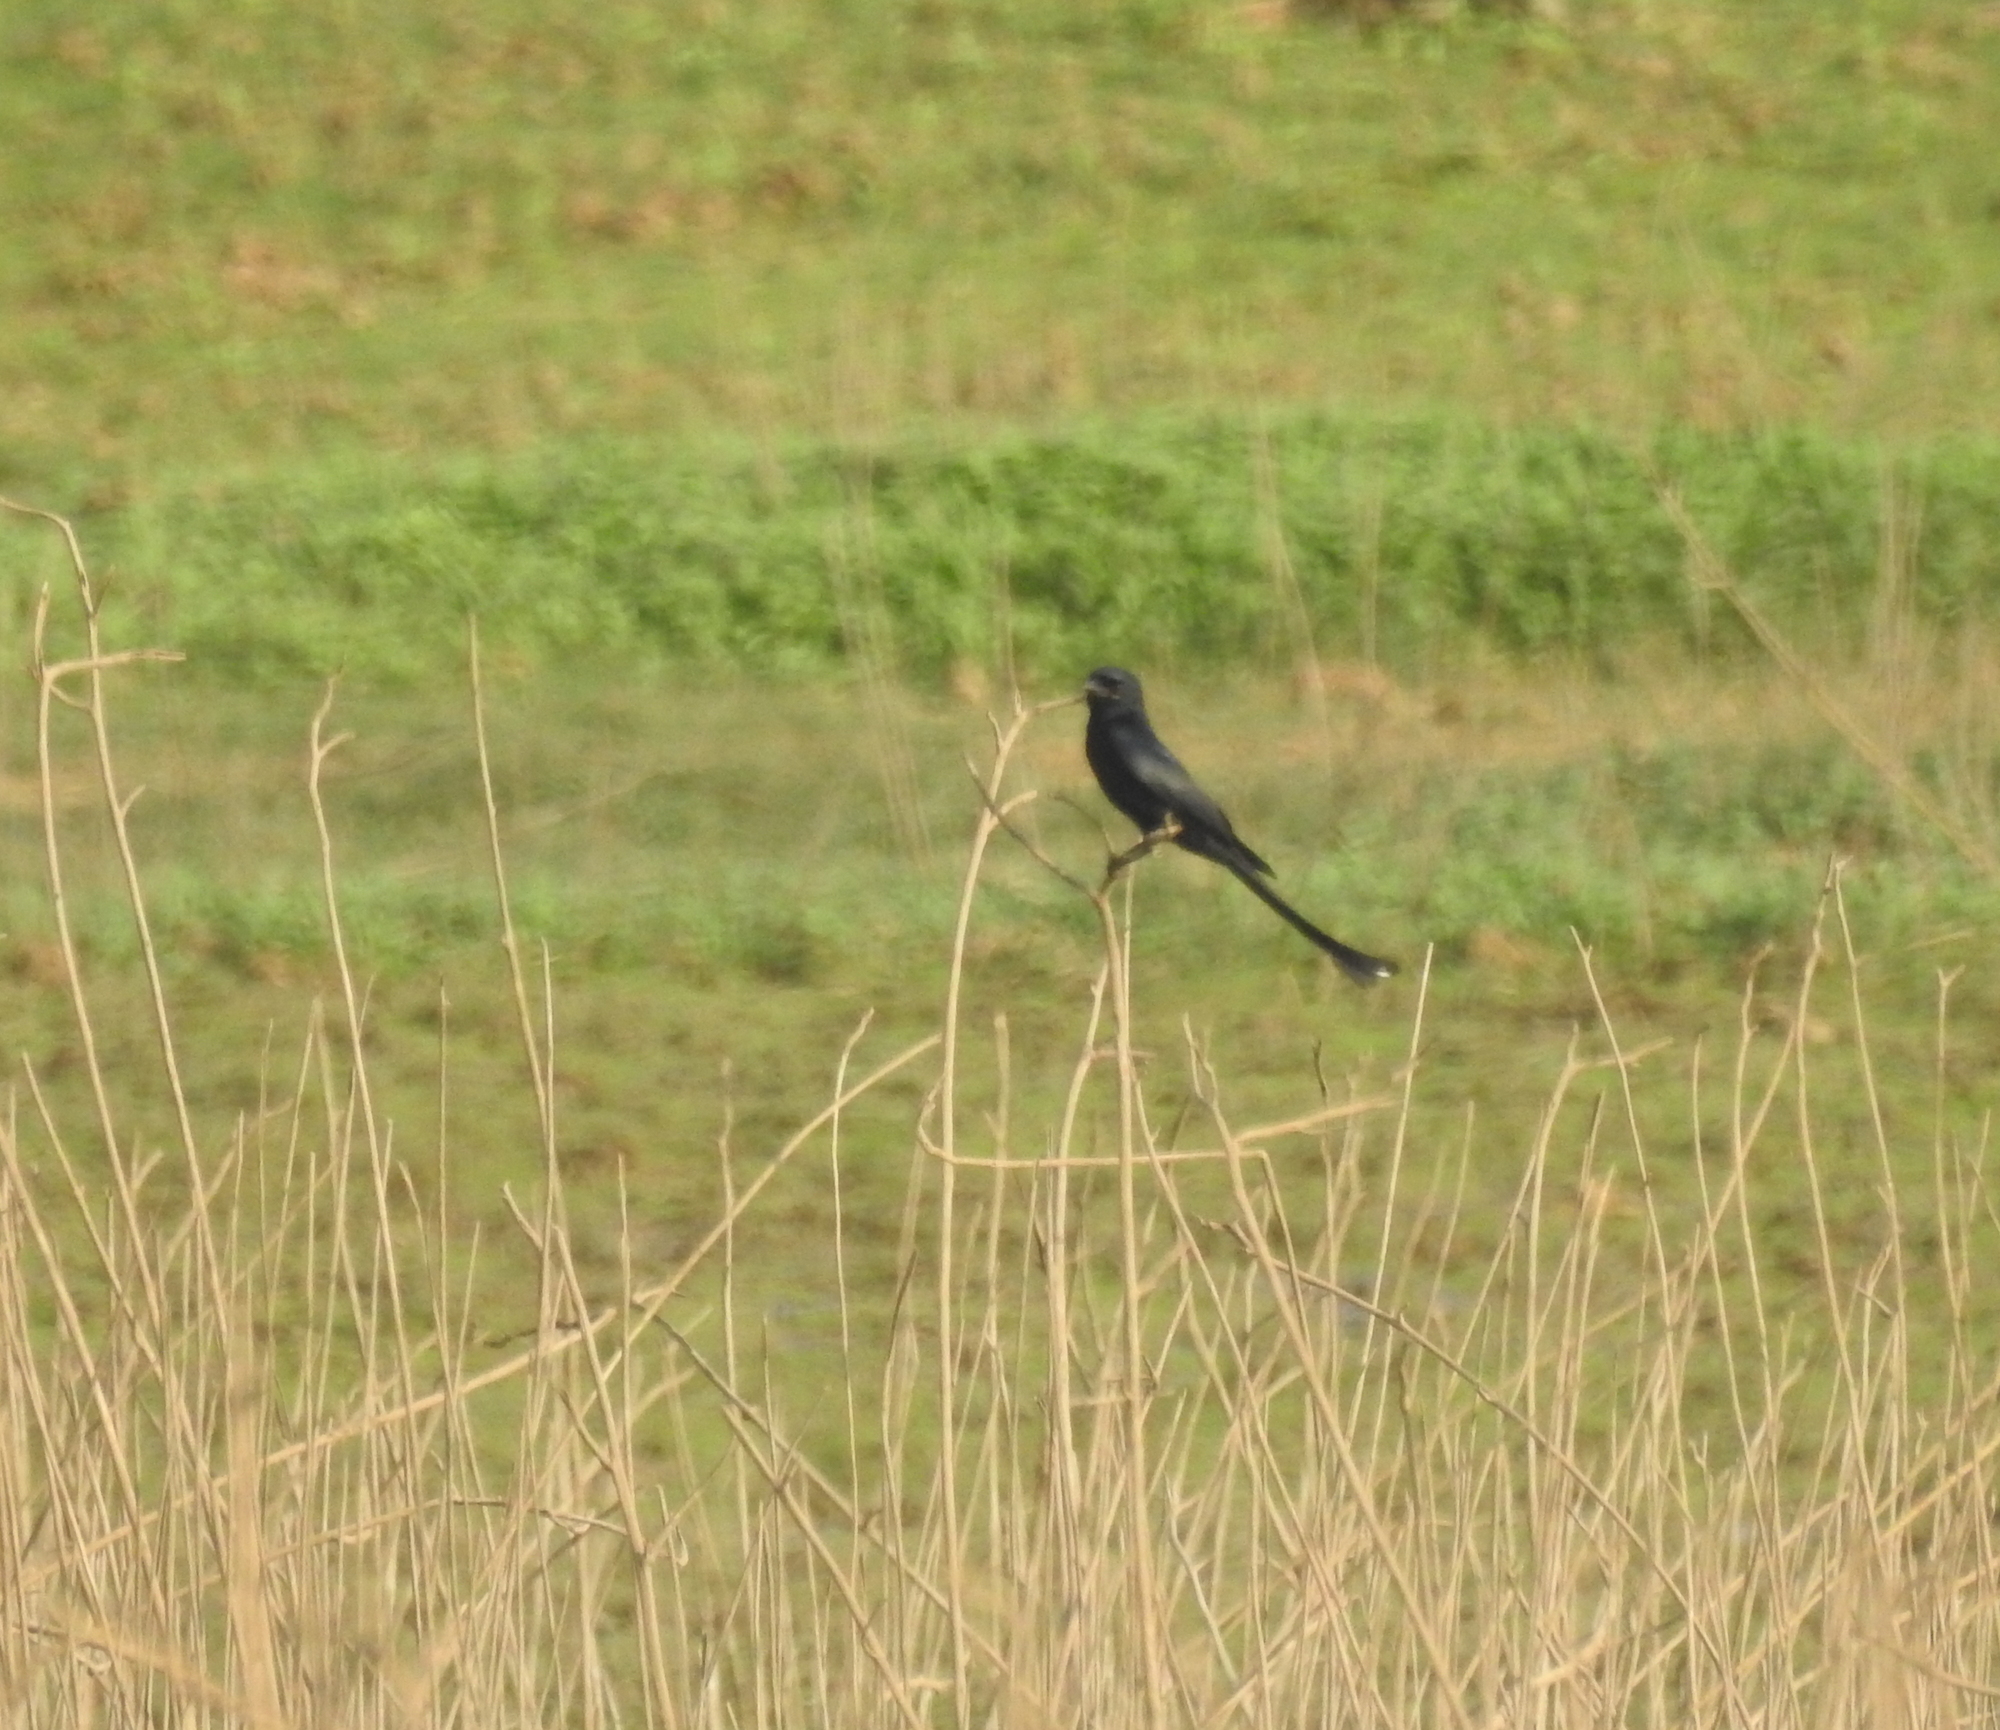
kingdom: Animalia
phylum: Chordata
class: Aves
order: Passeriformes
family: Dicruridae
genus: Dicrurus
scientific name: Dicrurus macrocercus
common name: Black drongo
